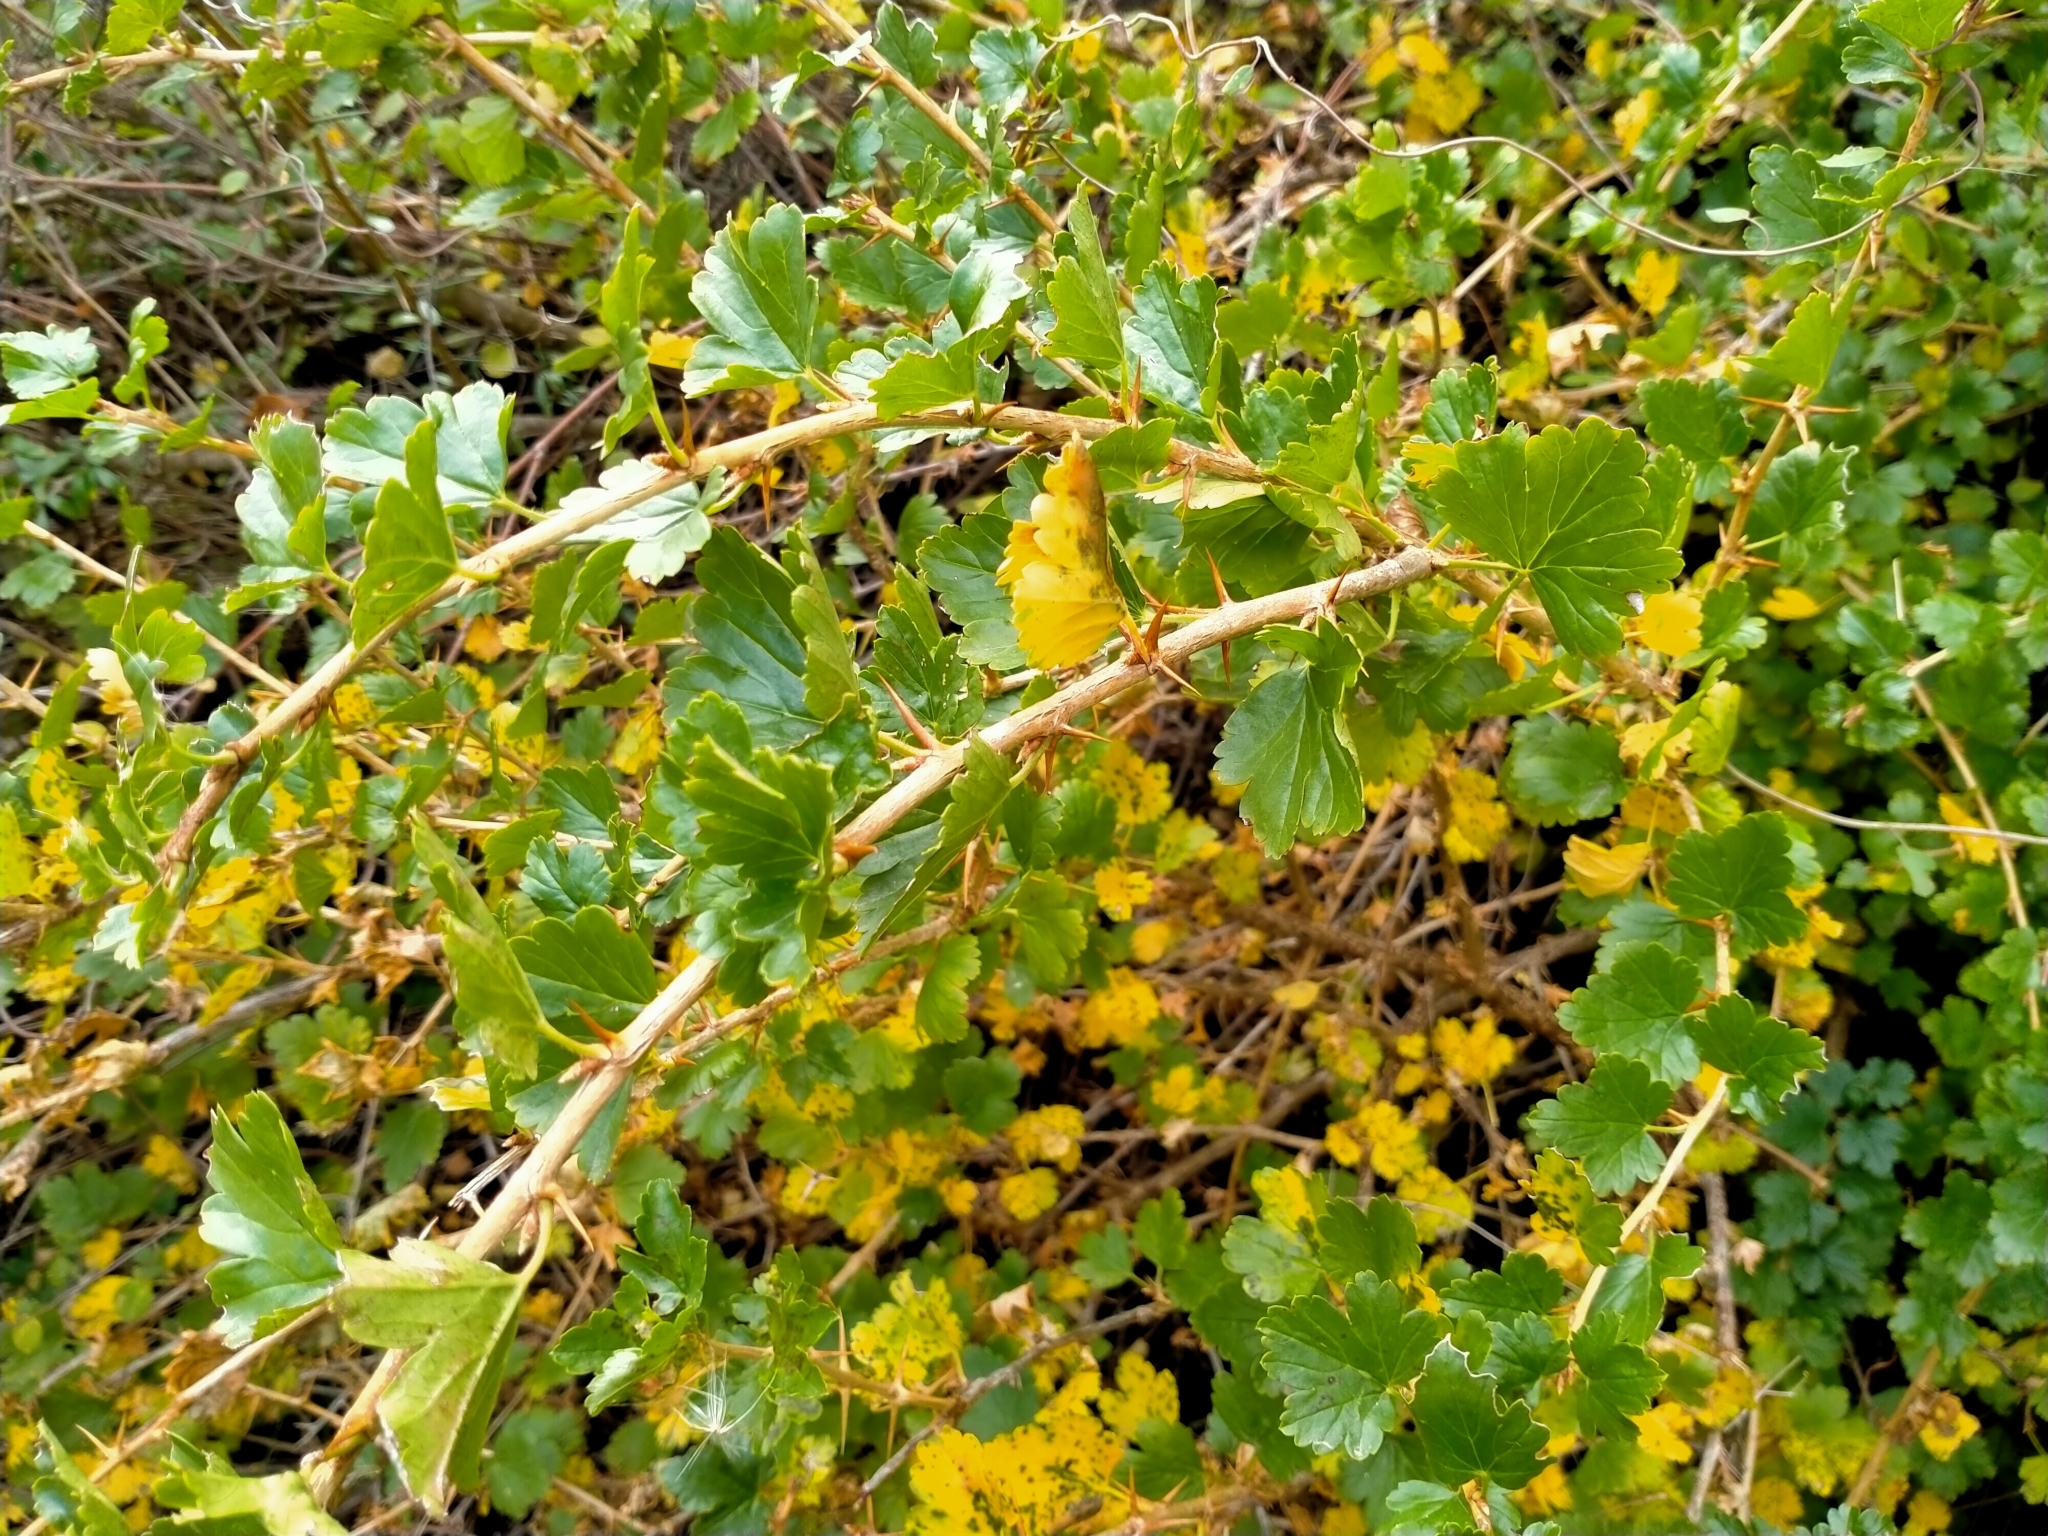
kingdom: Plantae
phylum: Tracheophyta
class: Magnoliopsida
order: Saxifragales
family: Grossulariaceae
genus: Ribes
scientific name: Ribes uva-crispa
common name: Gooseberry
